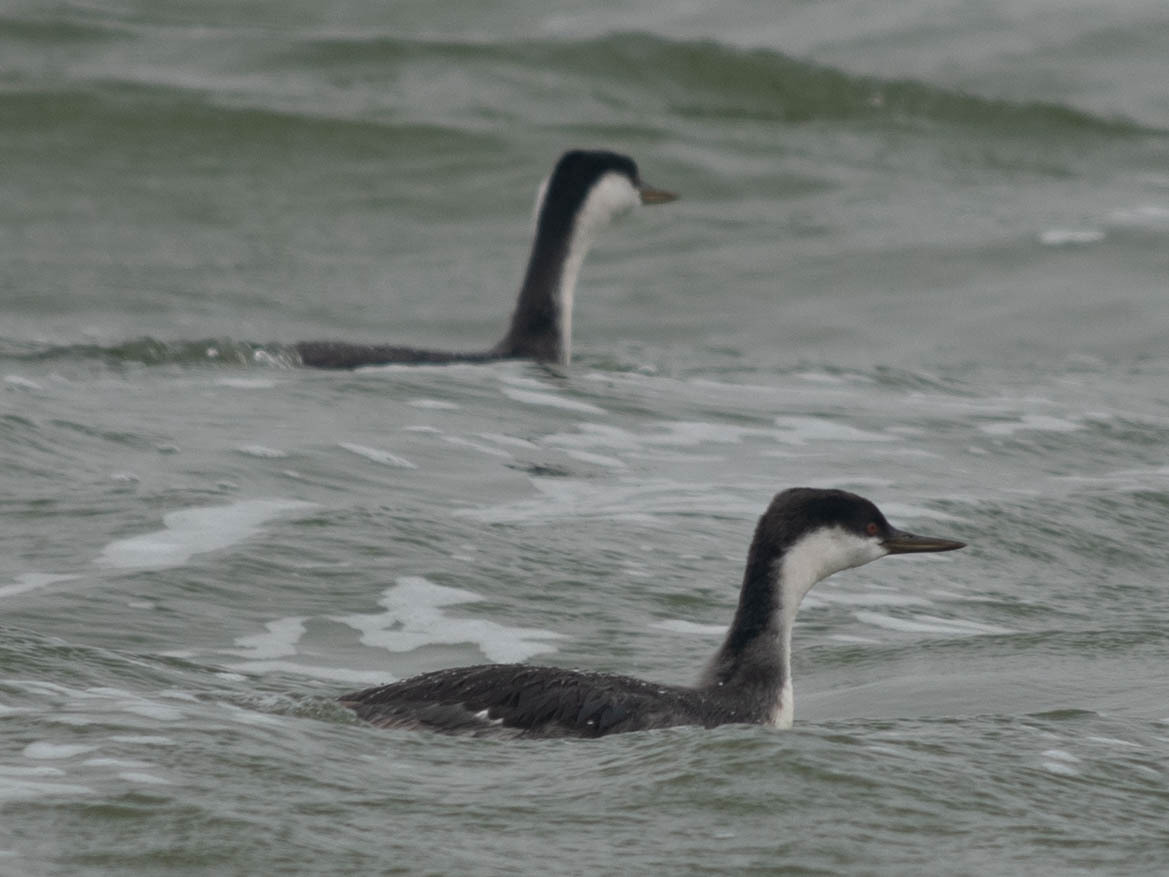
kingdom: Animalia
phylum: Chordata
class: Aves
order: Podicipediformes
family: Podicipedidae
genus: Aechmophorus
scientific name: Aechmophorus occidentalis
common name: Western grebe
